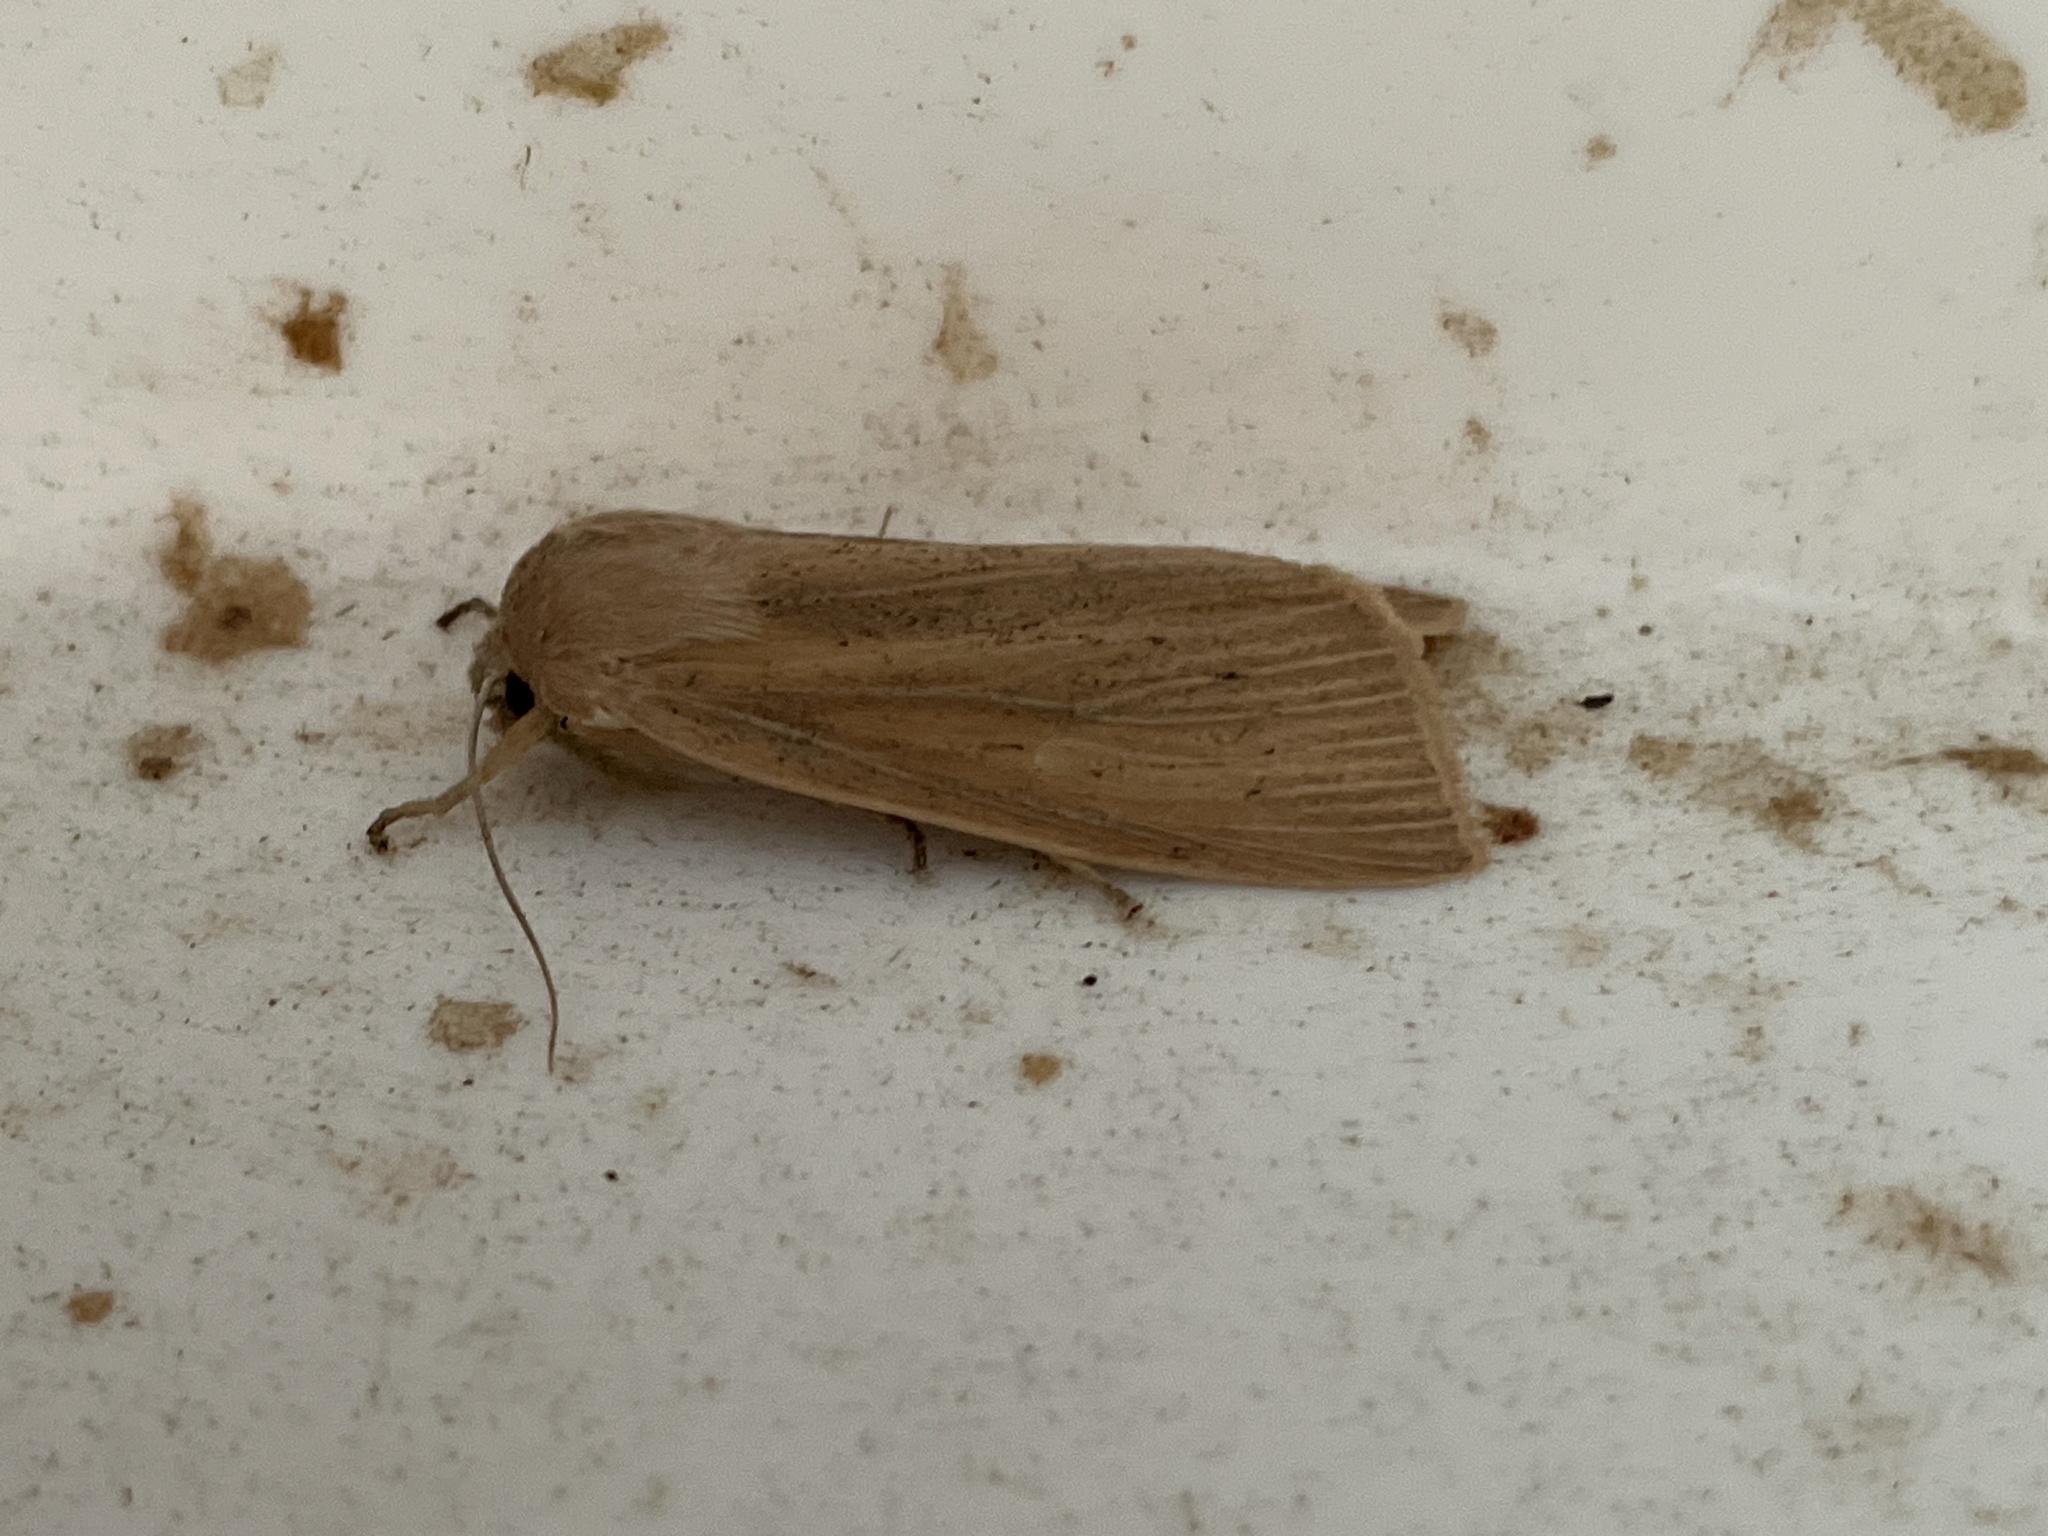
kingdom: Animalia
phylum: Arthropoda
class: Insecta
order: Lepidoptera
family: Noctuidae
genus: Rhizedra
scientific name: Rhizedra lutosa
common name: Large wainscot
